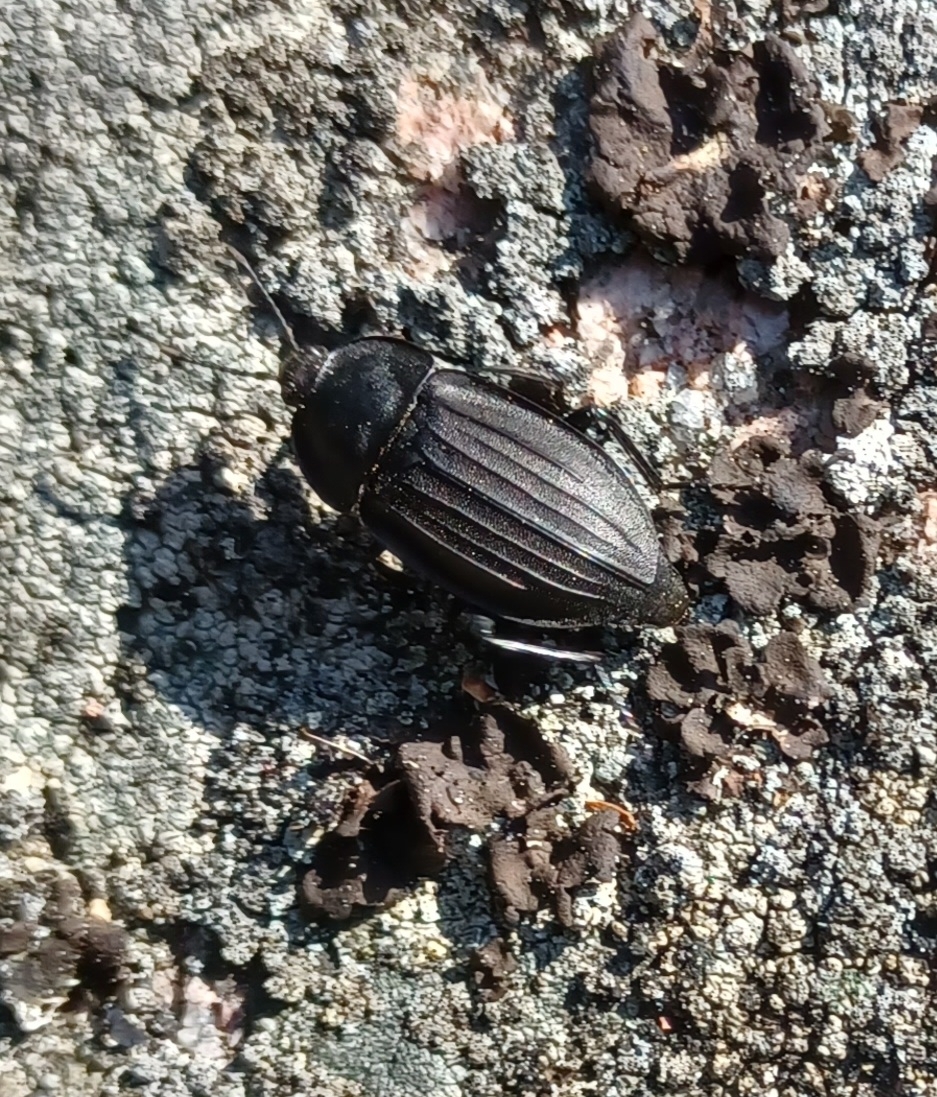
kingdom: Animalia
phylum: Arthropoda
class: Insecta
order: Coleoptera
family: Staphylinidae
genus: Silpha
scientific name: Silpha carinata
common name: Silphid beetle
